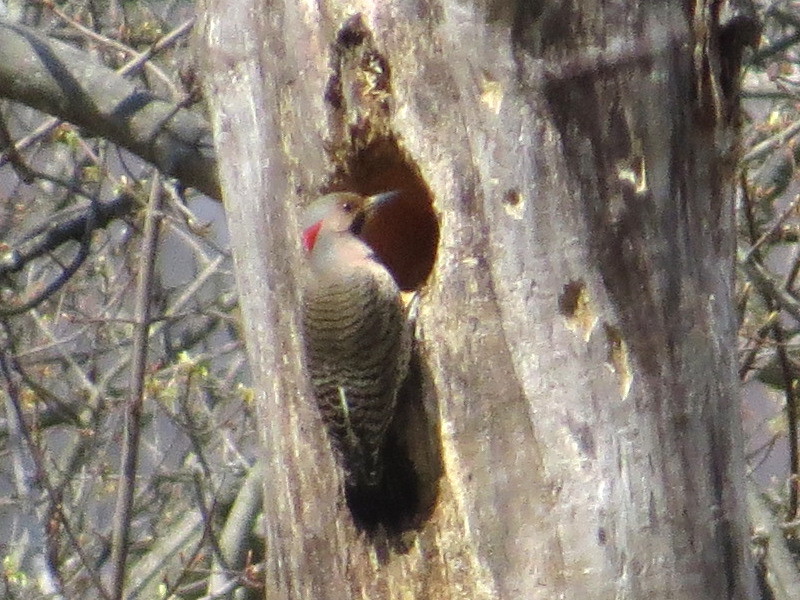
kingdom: Animalia
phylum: Chordata
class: Aves
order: Piciformes
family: Picidae
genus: Colaptes
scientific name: Colaptes auratus
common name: Northern flicker
